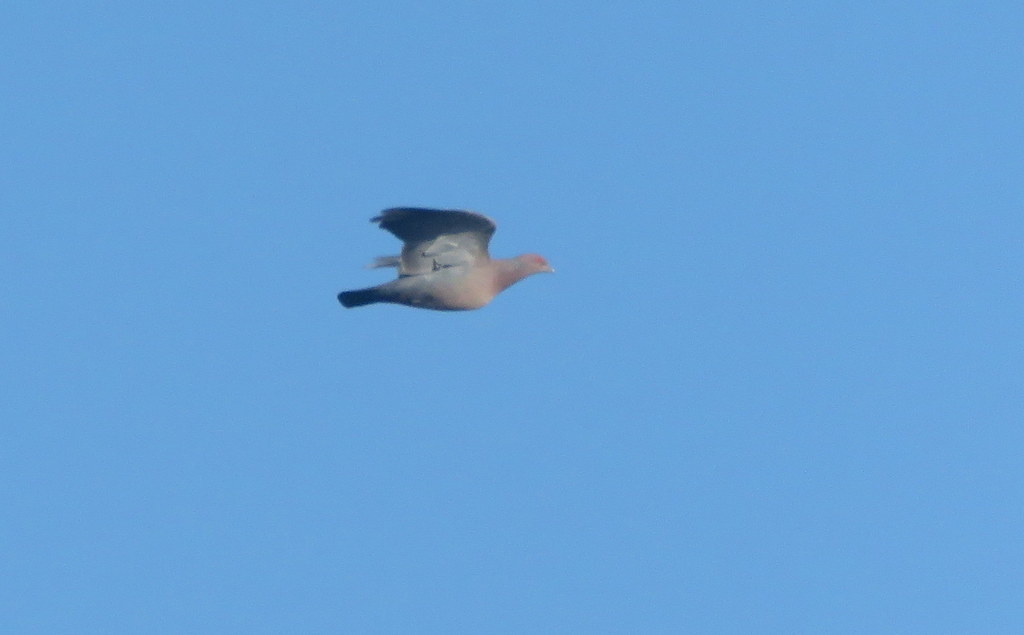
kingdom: Animalia
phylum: Chordata
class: Aves
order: Columbiformes
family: Columbidae
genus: Patagioenas
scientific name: Patagioenas picazuro
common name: Picazuro pigeon
